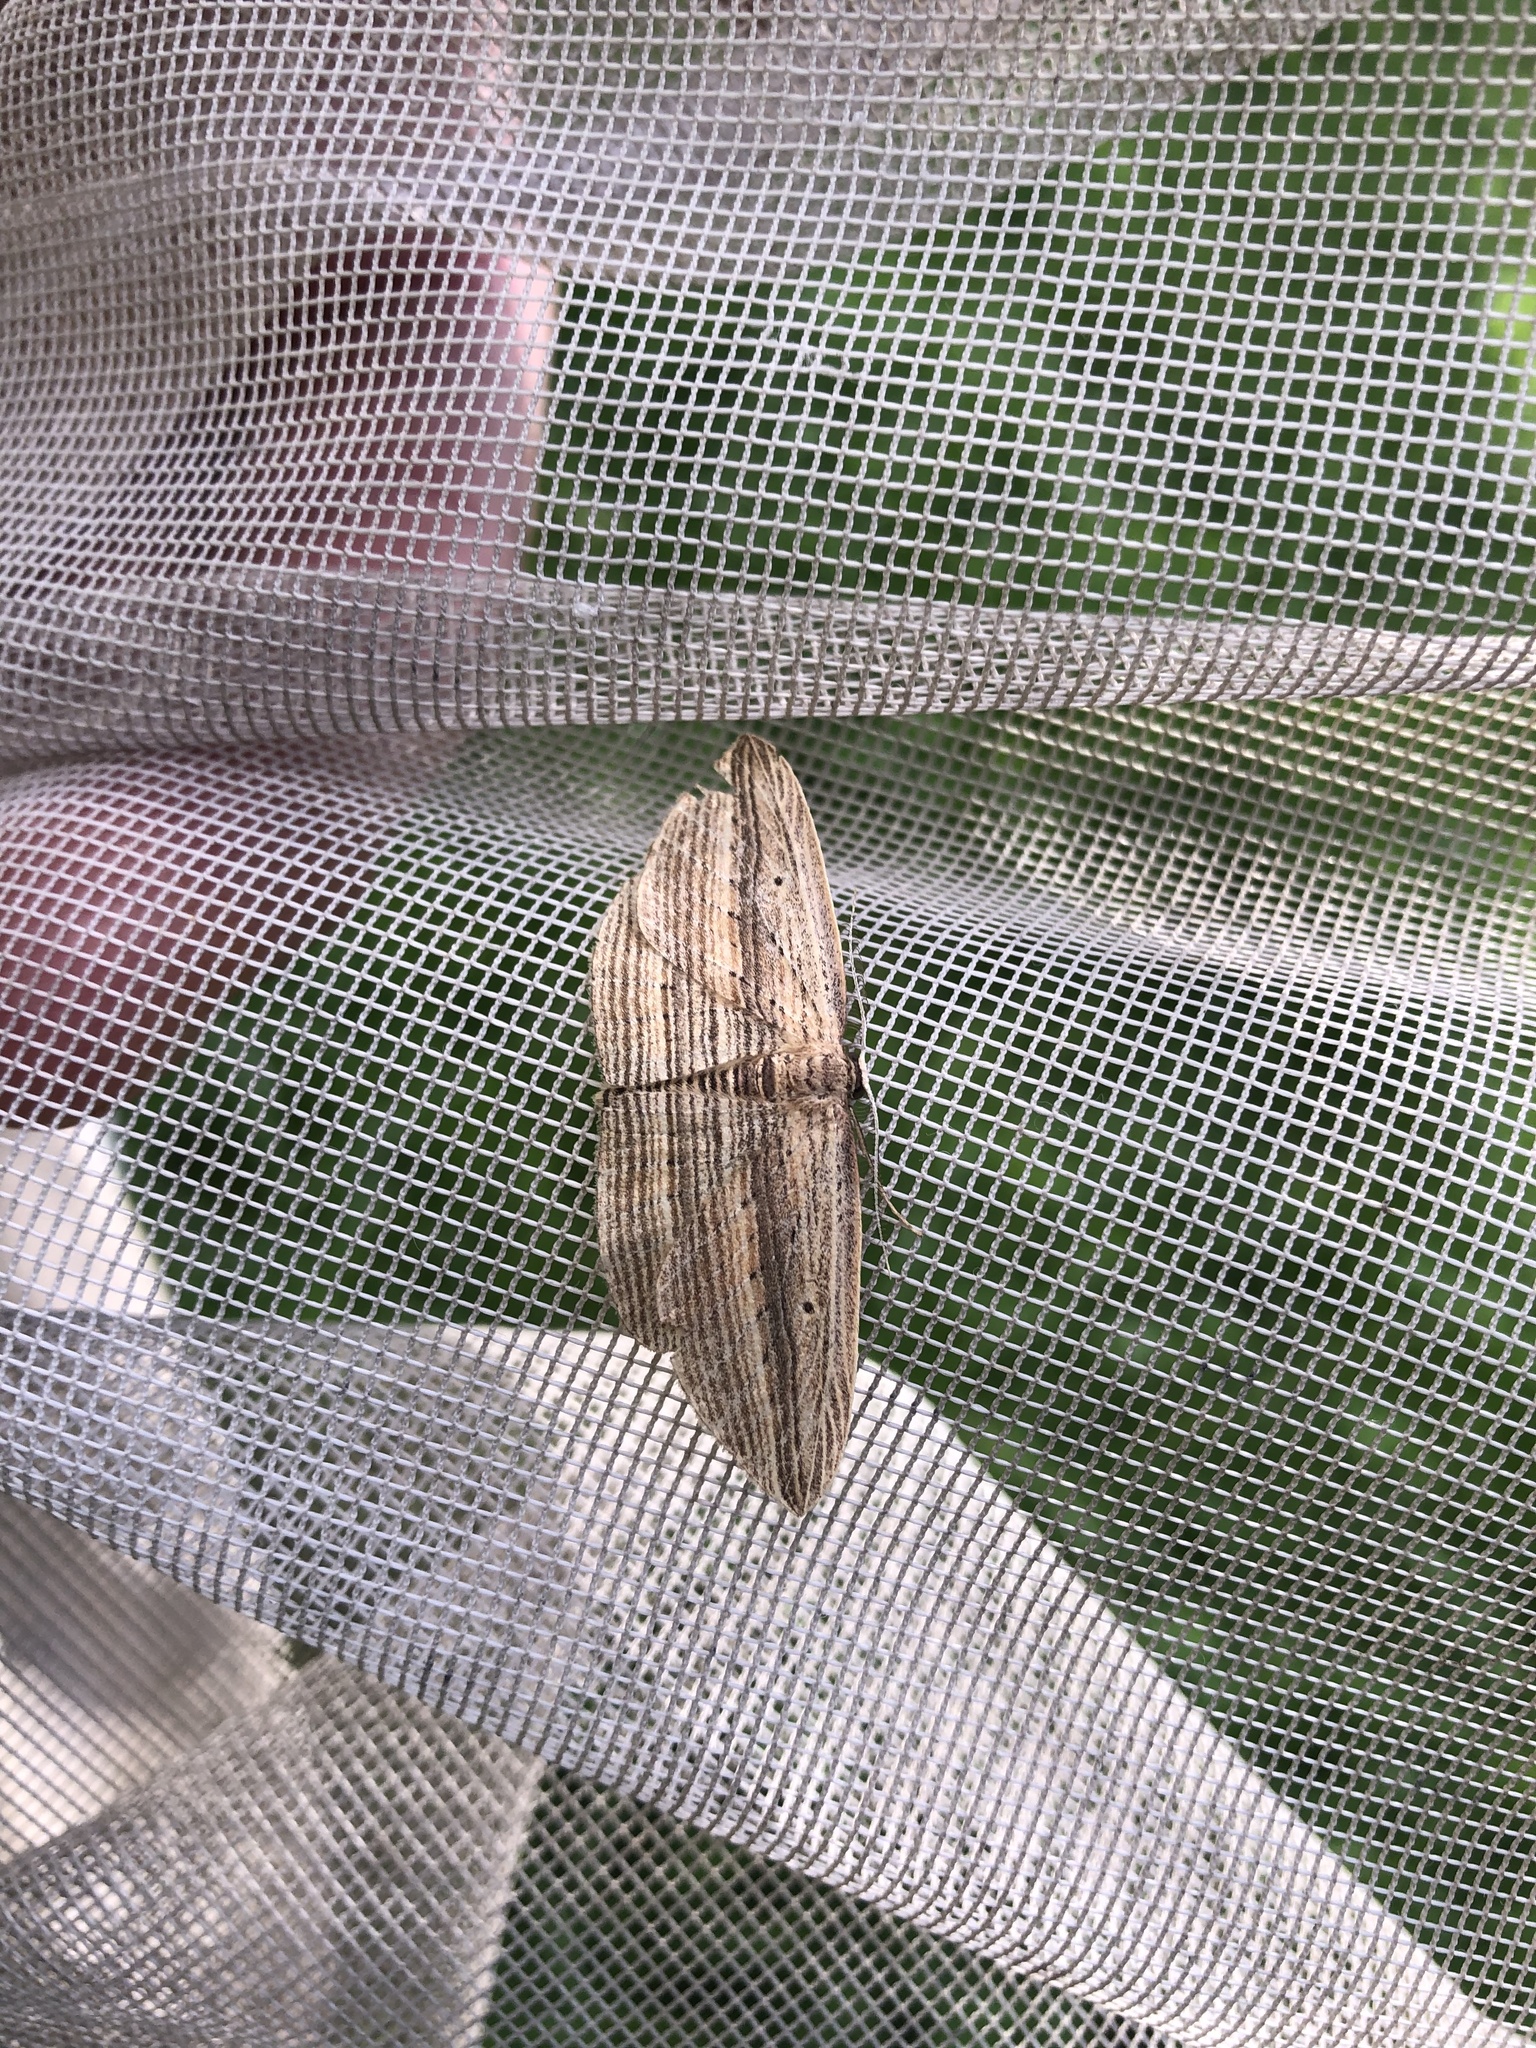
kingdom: Animalia
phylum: Arthropoda
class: Insecta
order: Lepidoptera
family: Geometridae
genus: Epiphryne
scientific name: Epiphryne verriculata
